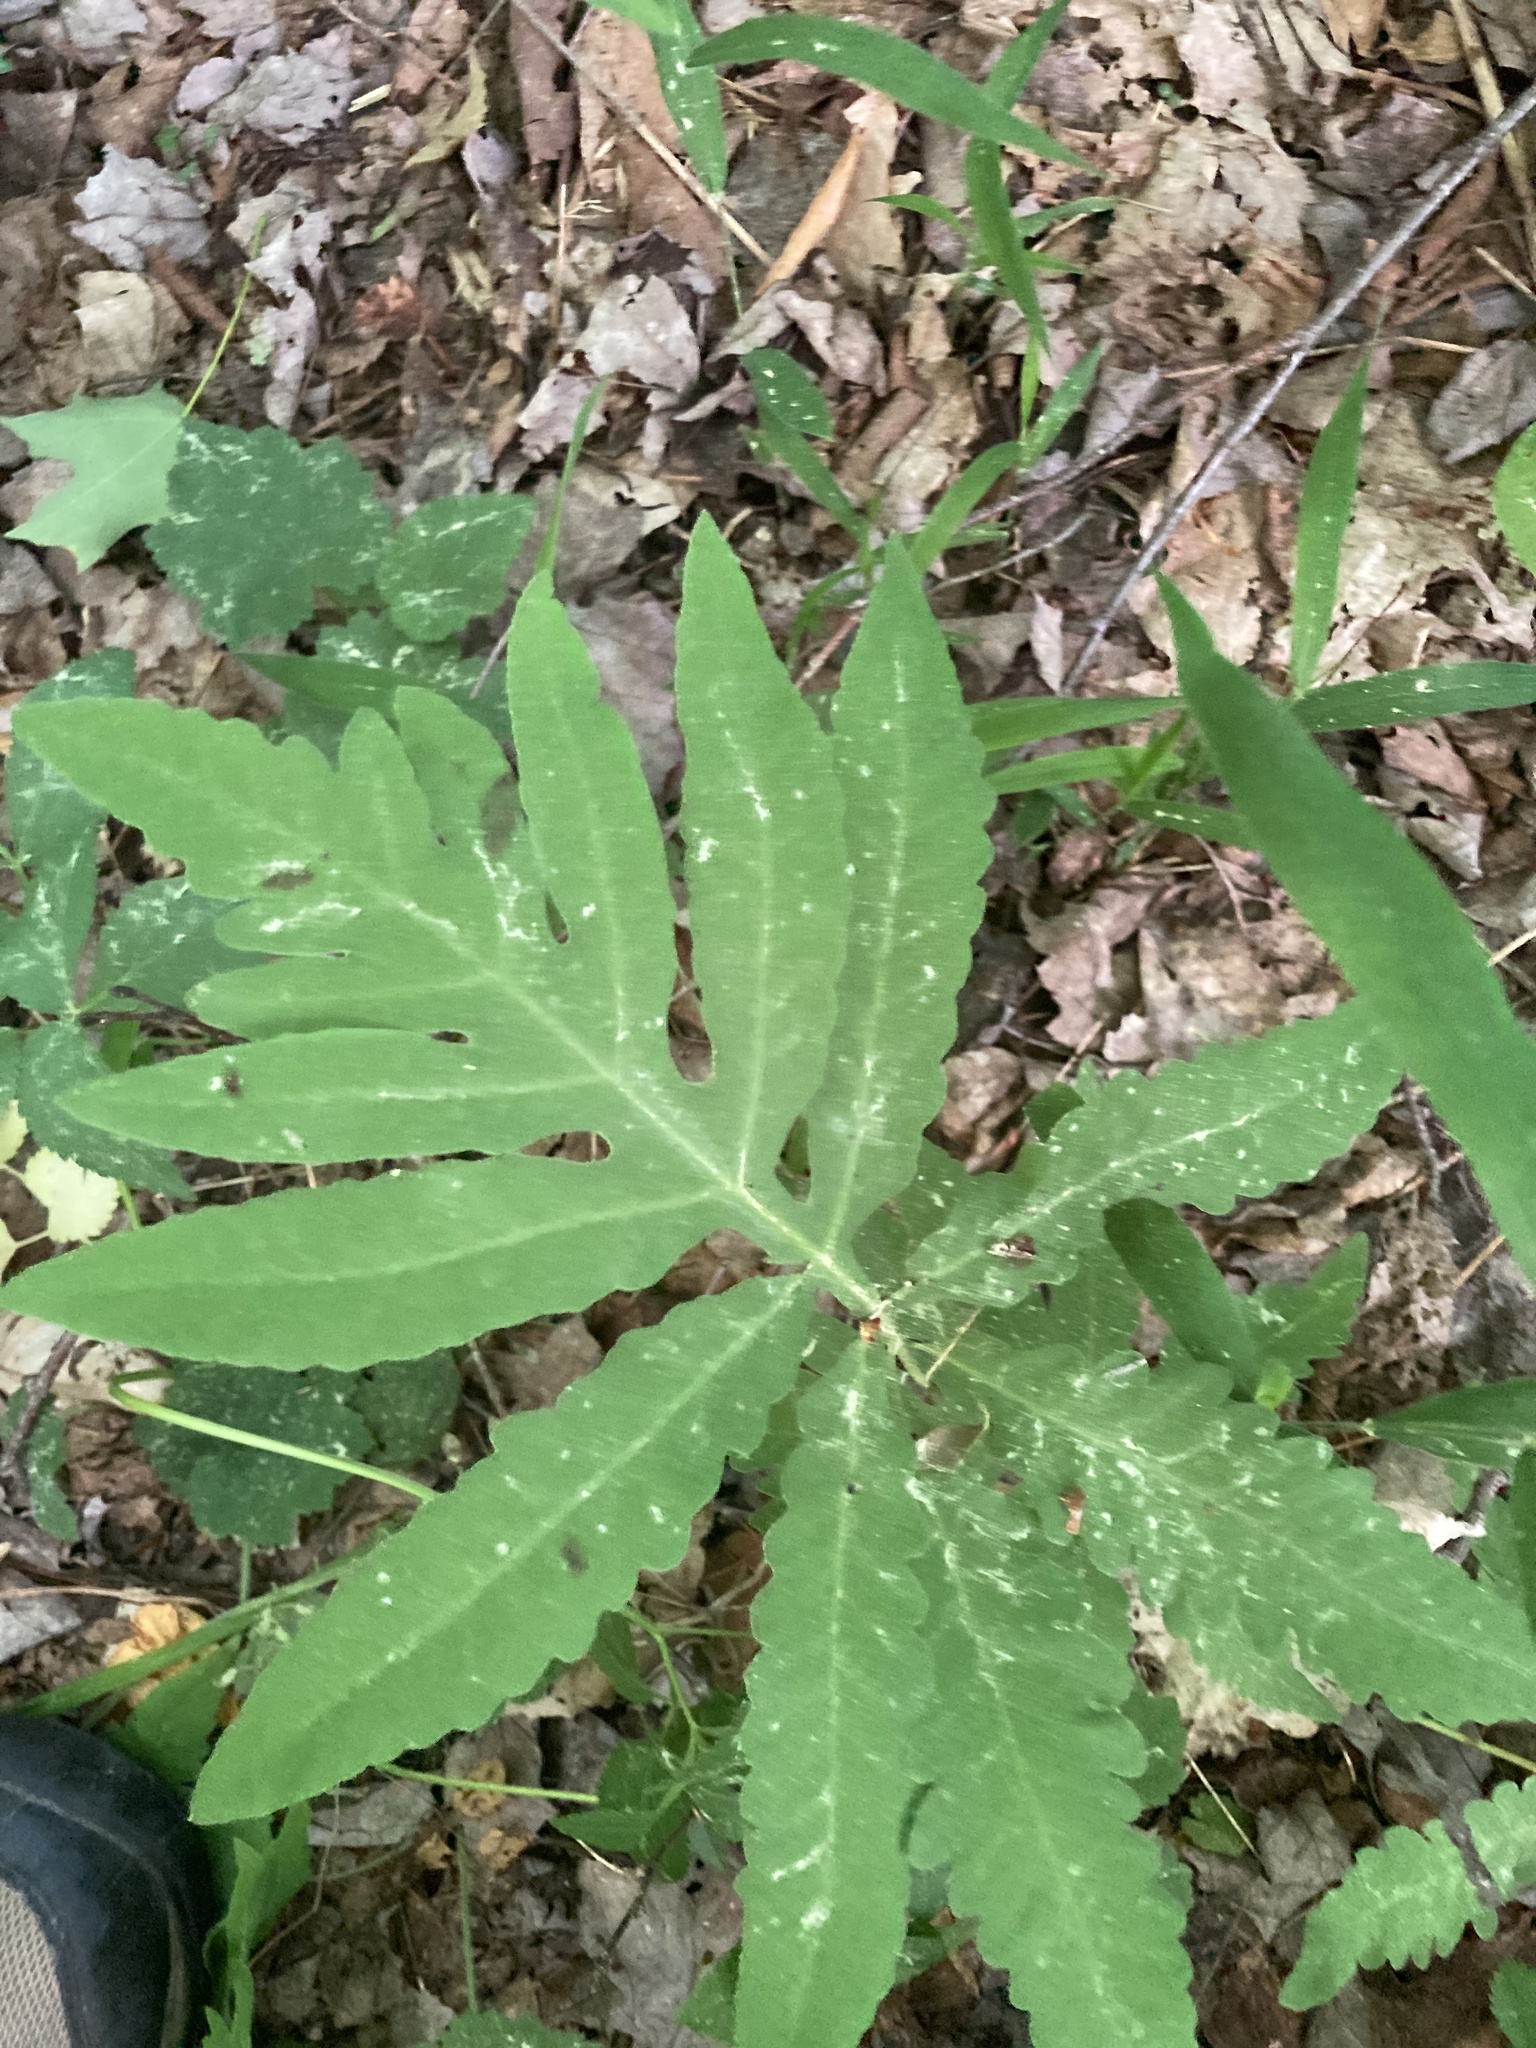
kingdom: Plantae
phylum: Tracheophyta
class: Polypodiopsida
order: Polypodiales
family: Onocleaceae
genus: Onoclea
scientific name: Onoclea sensibilis
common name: Sensitive fern
